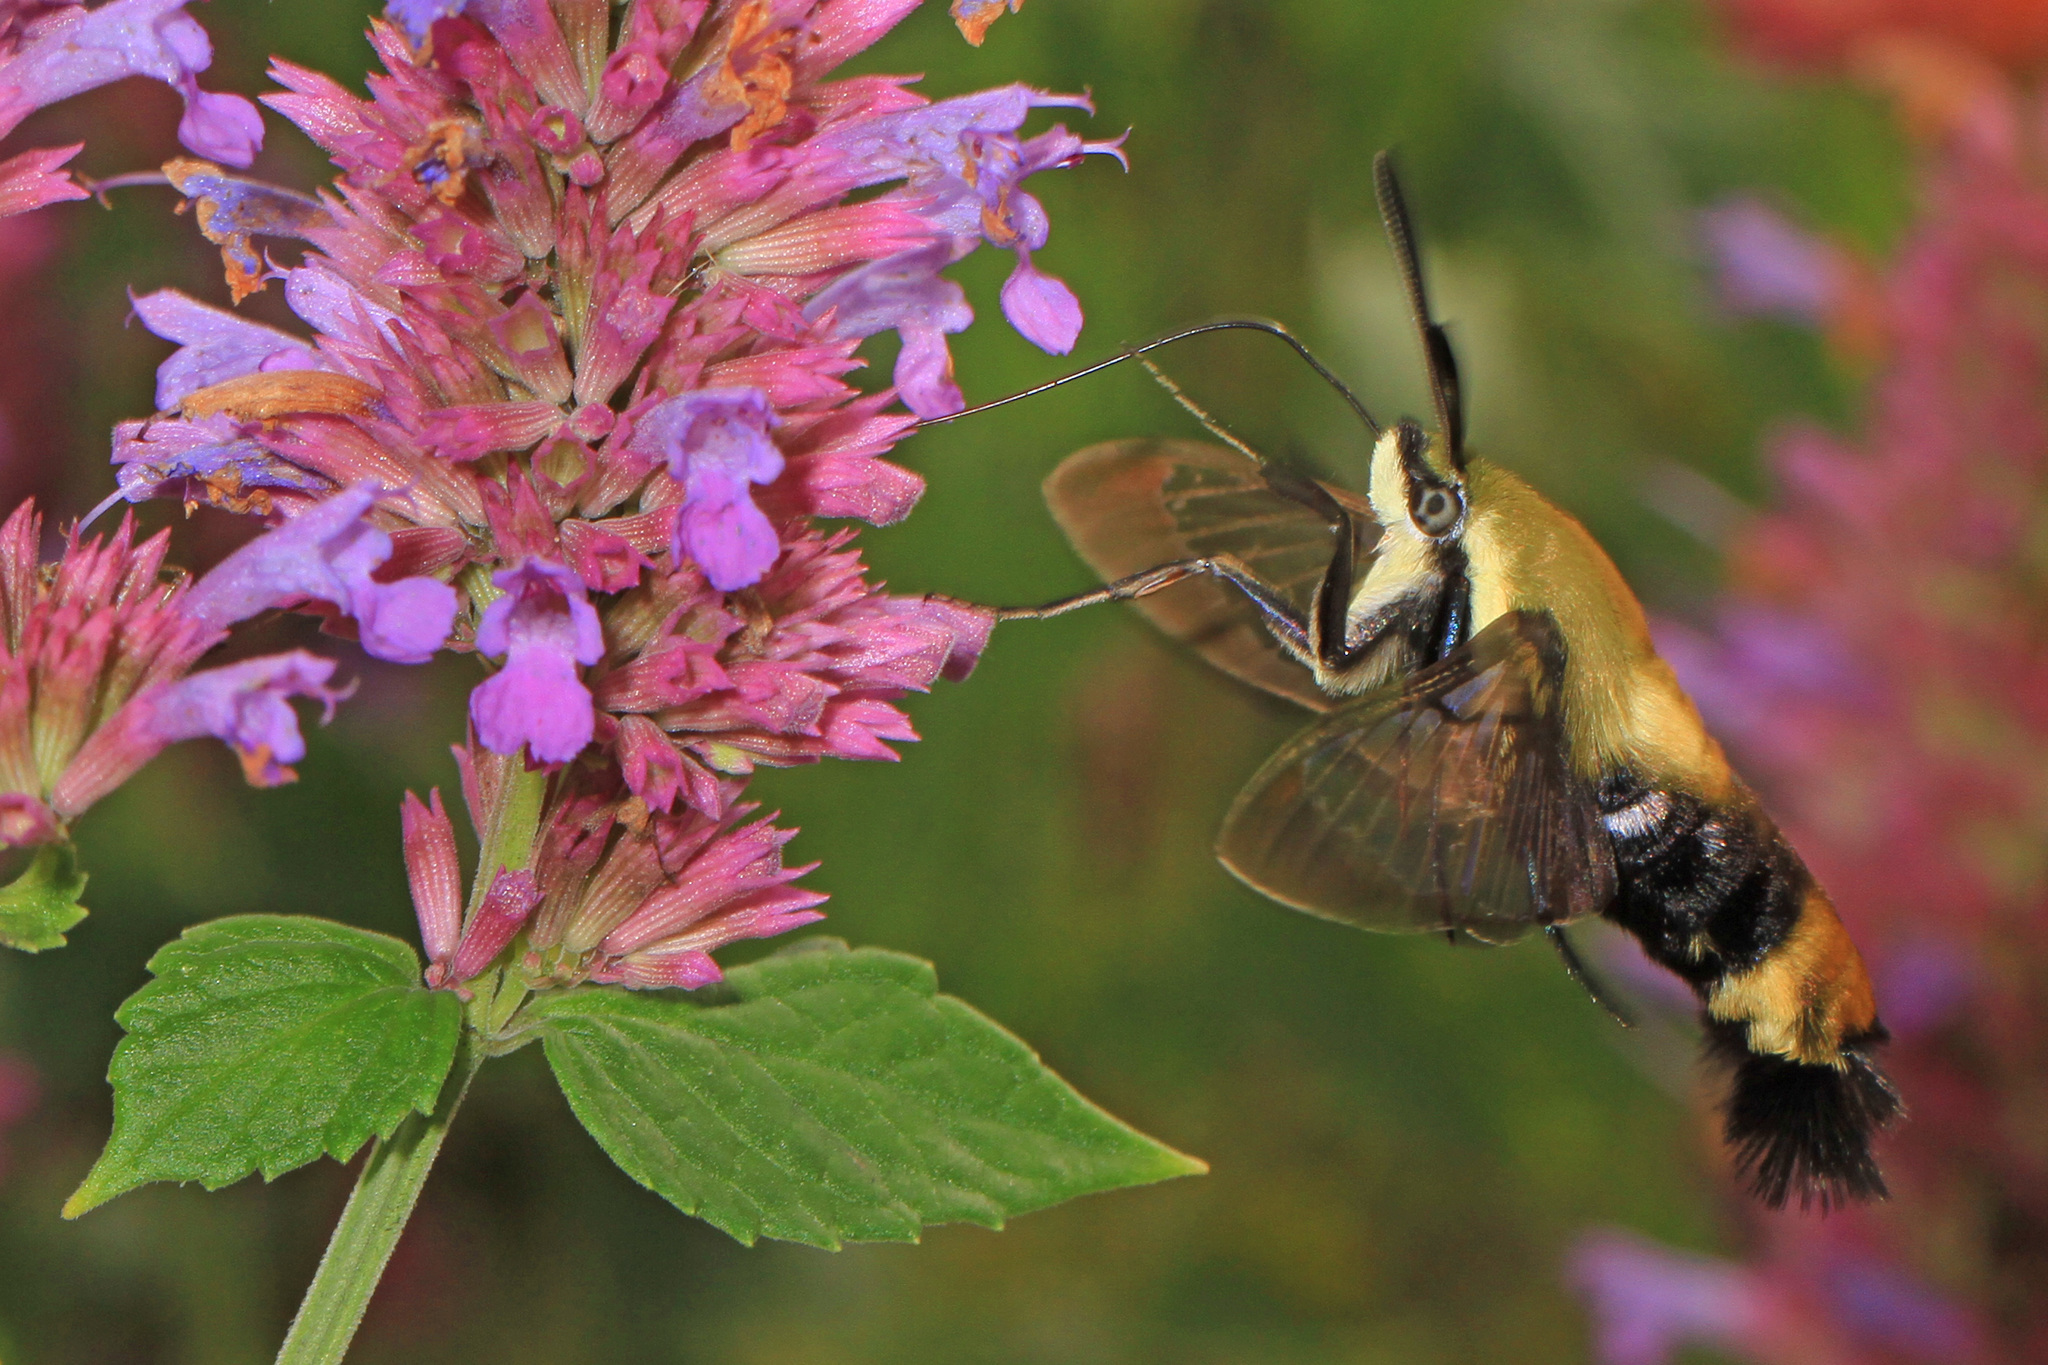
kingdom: Animalia
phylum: Arthropoda
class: Insecta
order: Lepidoptera
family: Sphingidae
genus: Hemaris
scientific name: Hemaris diffinis
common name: Bumblebee moth
